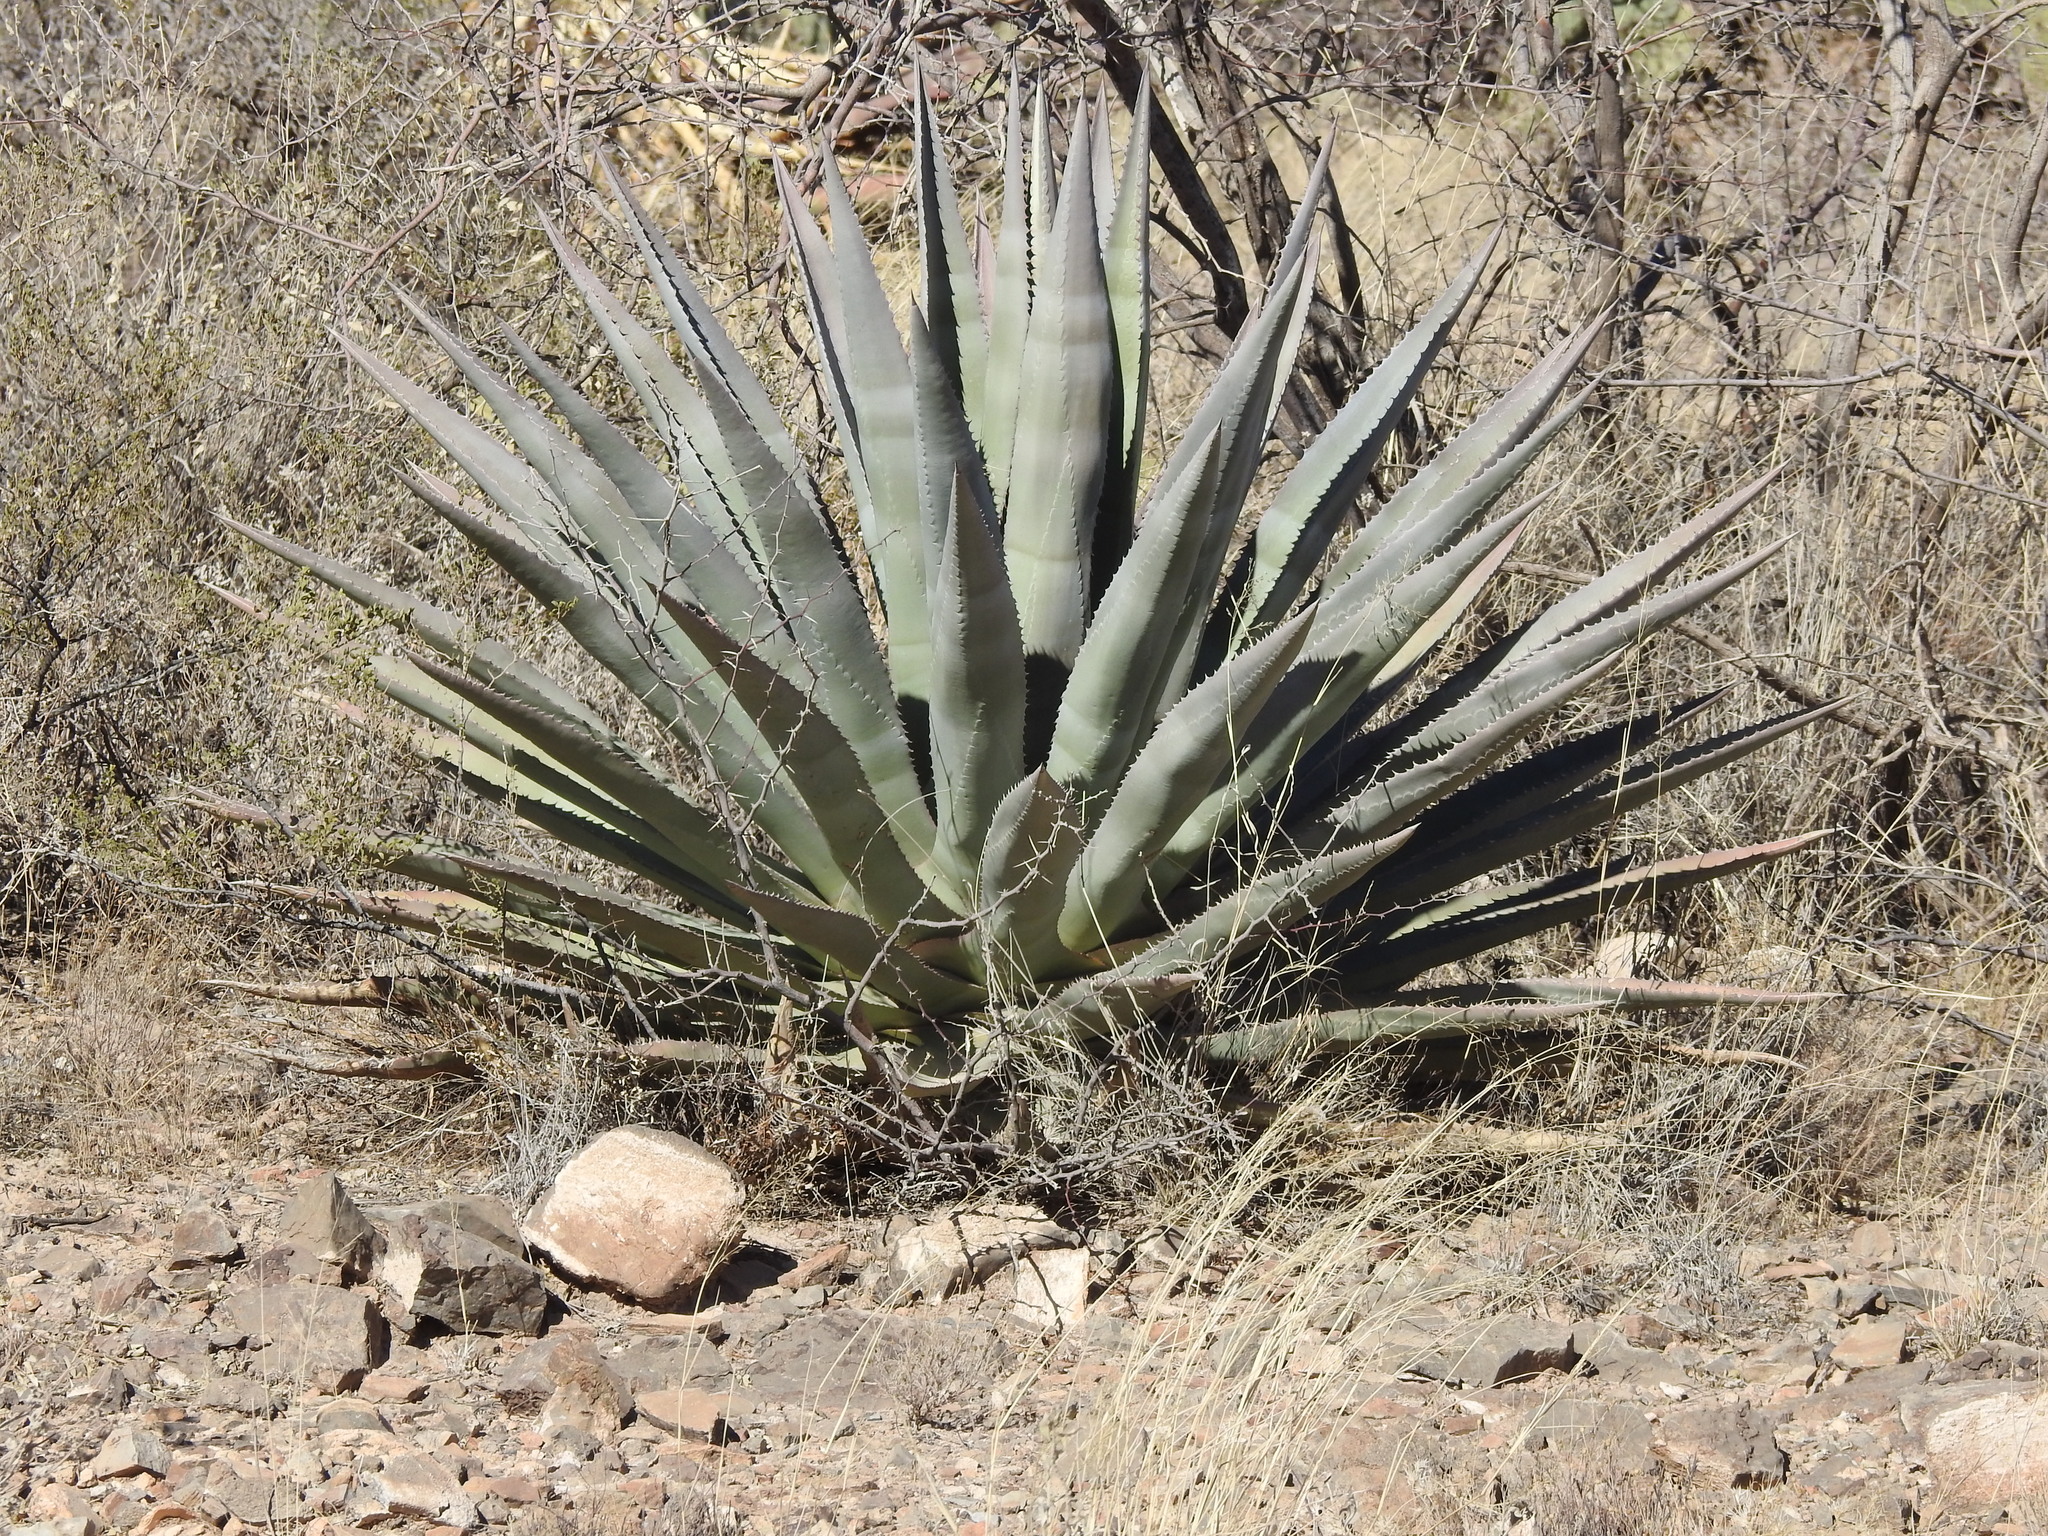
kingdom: Plantae
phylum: Tracheophyta
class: Liliopsida
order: Asparagales
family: Asparagaceae
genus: Agave
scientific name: Agave palmeri
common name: Palmer agave
